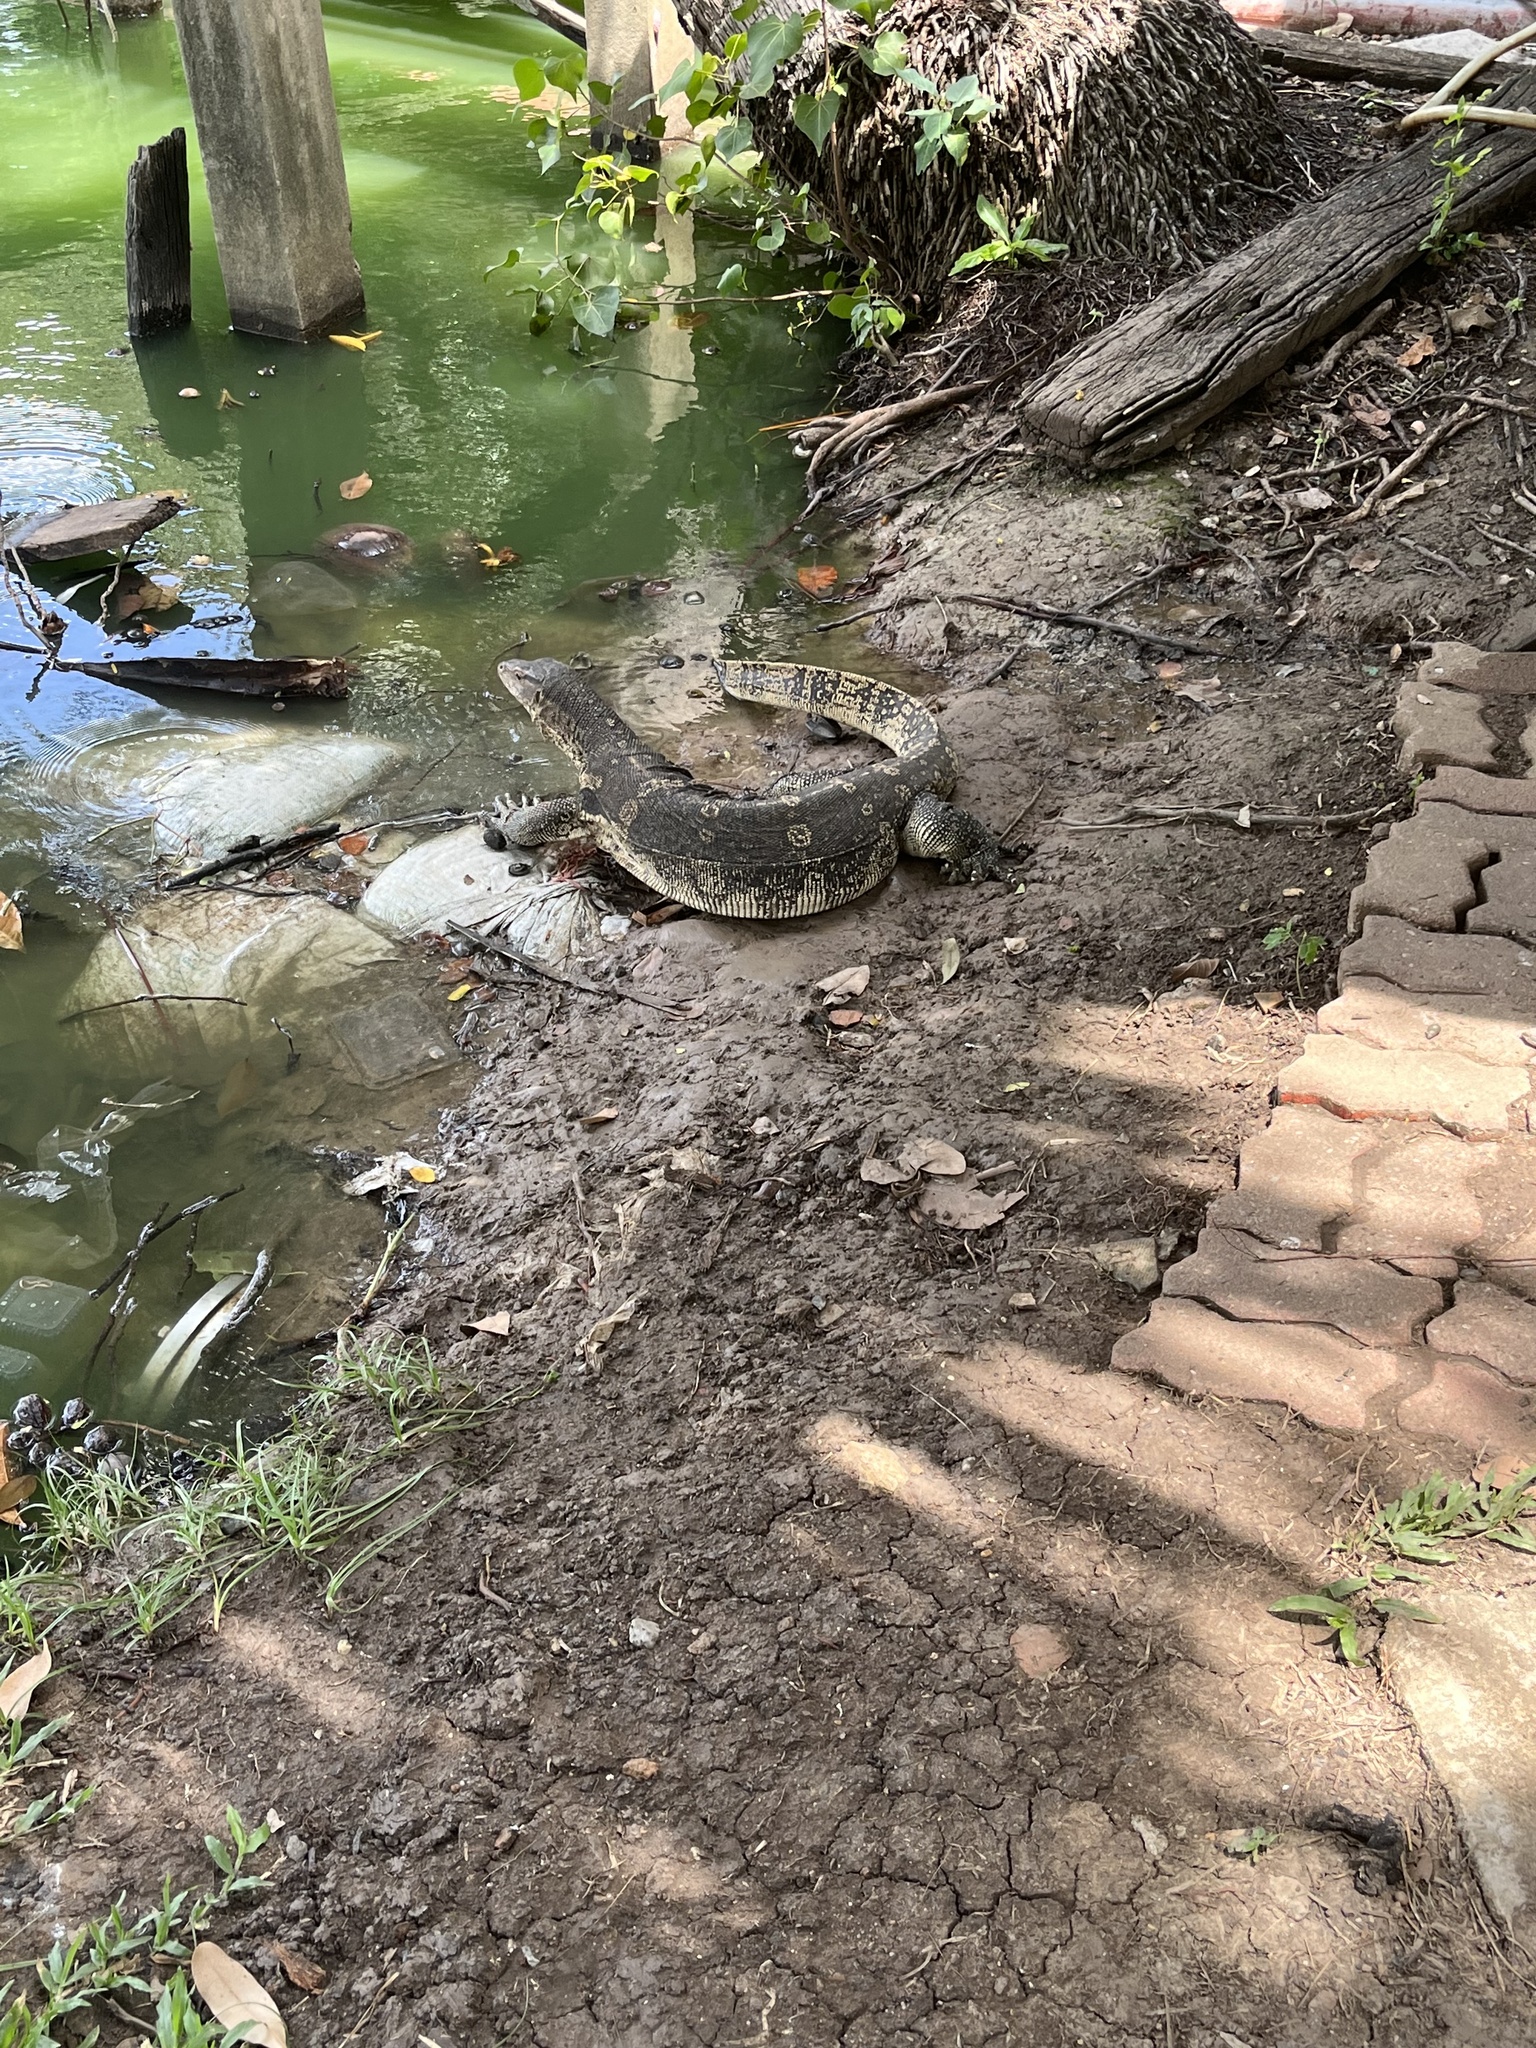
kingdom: Animalia
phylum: Chordata
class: Squamata
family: Varanidae
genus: Varanus
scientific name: Varanus salvator
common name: Common water monitor
